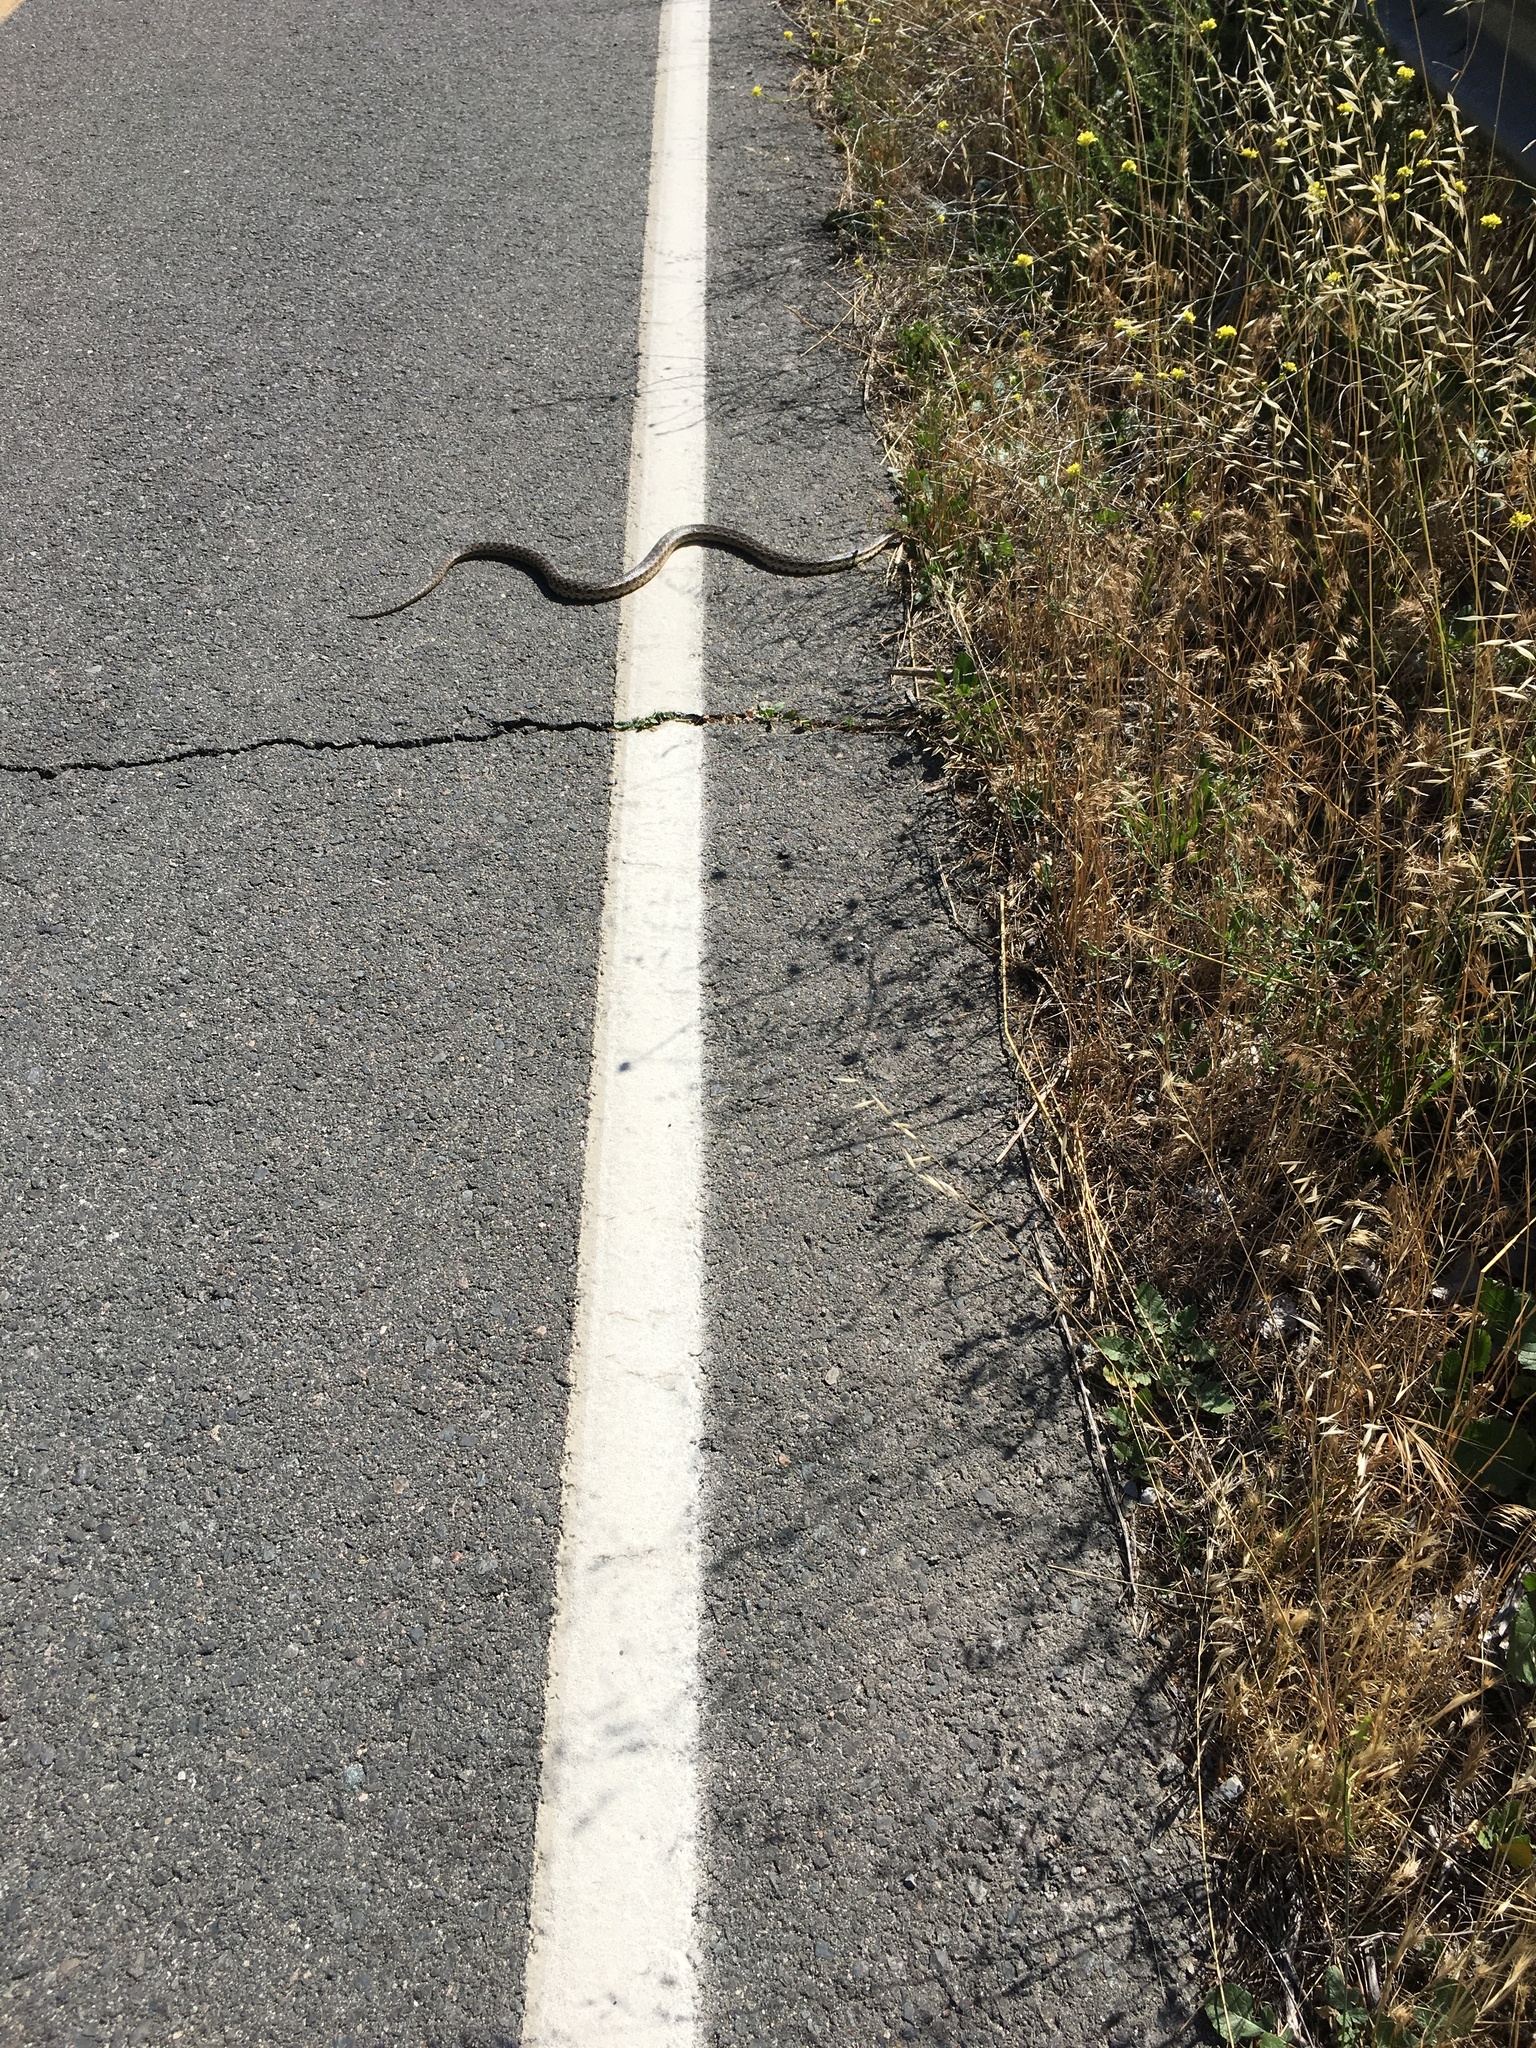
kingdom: Animalia
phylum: Chordata
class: Squamata
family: Colubridae
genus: Pituophis
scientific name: Pituophis catenifer
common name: Gopher snake
